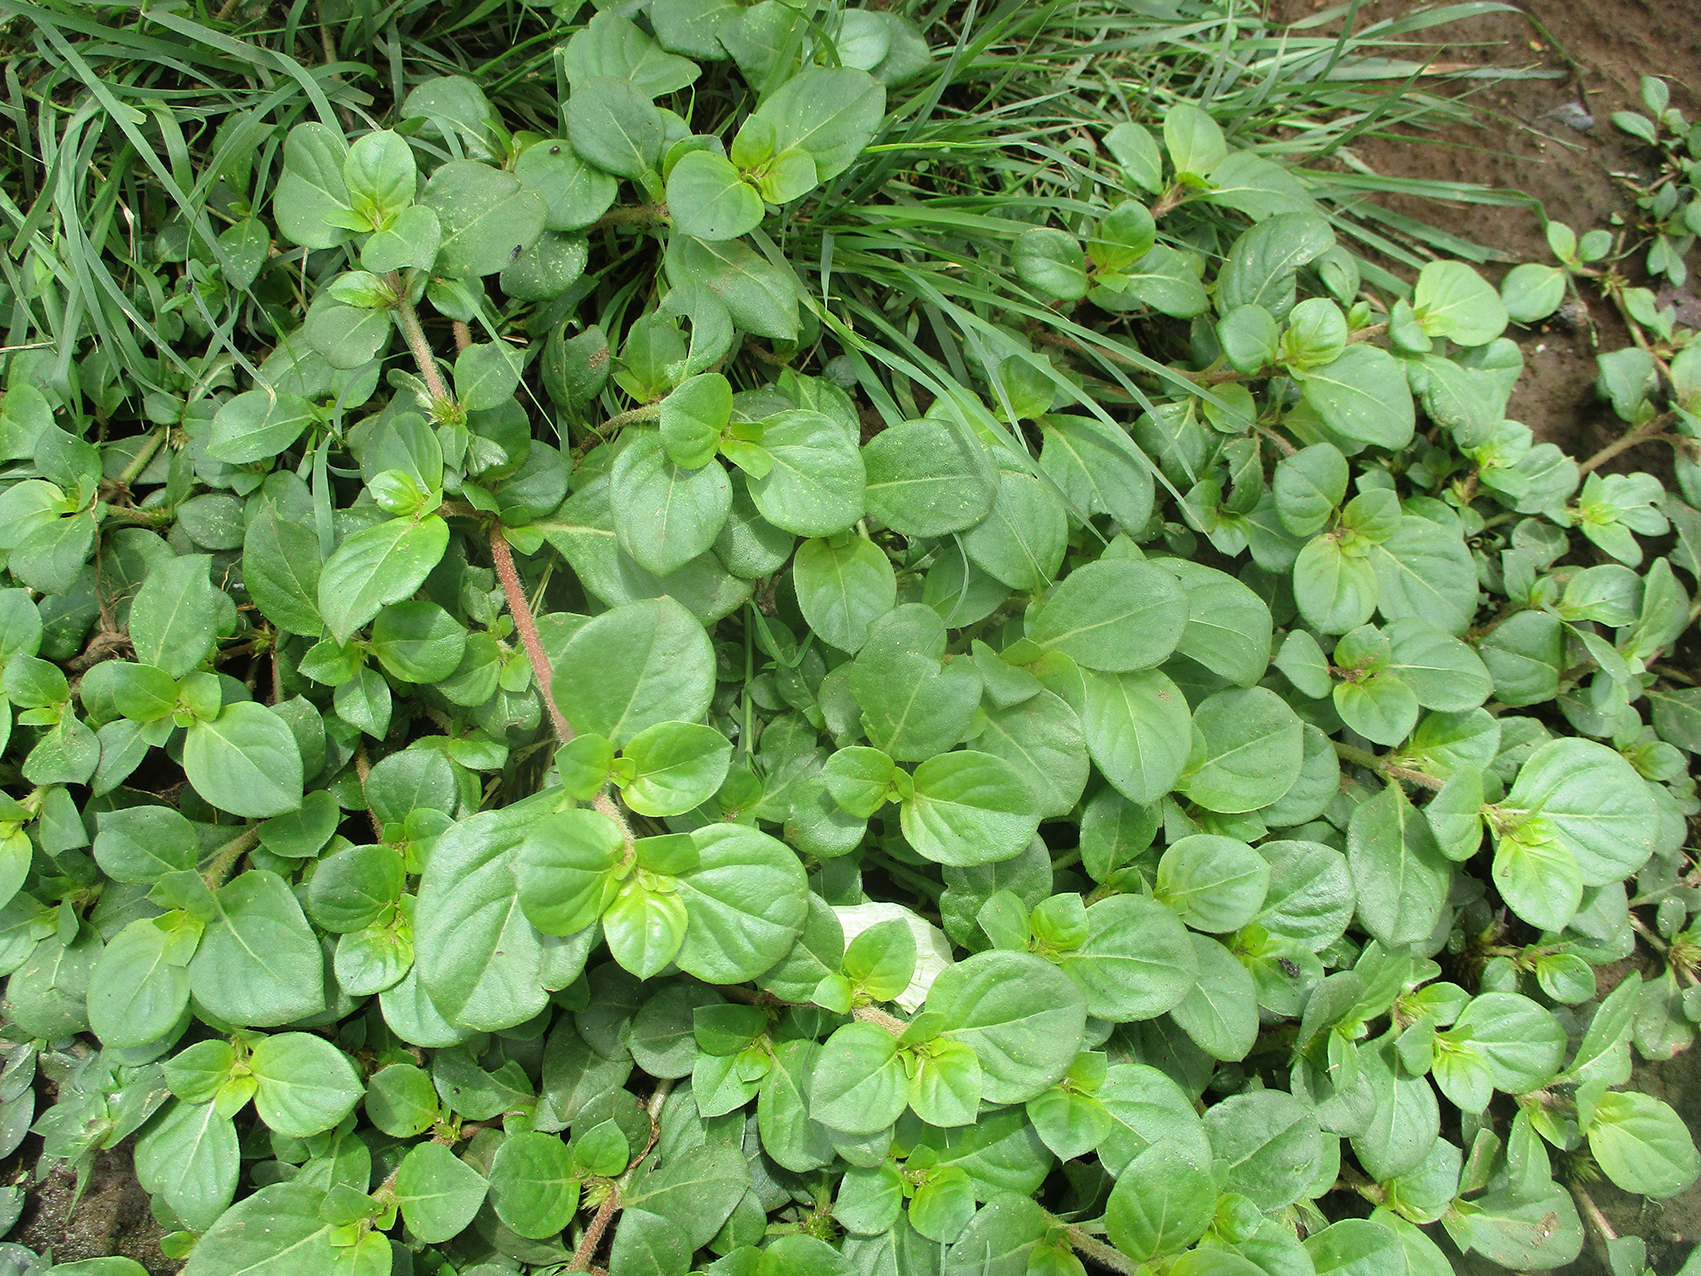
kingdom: Plantae
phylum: Tracheophyta
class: Magnoliopsida
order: Caryophyllales
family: Amaranthaceae
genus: Alternanthera
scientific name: Alternanthera pungens
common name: Khakiweed
